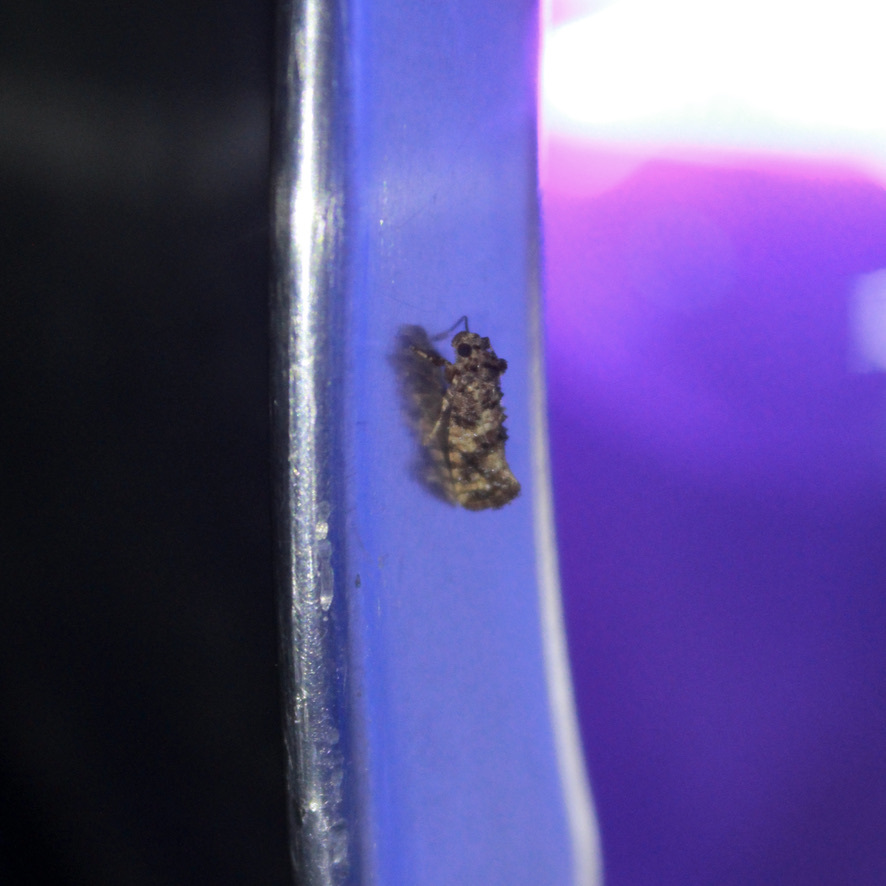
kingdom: Animalia
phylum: Arthropoda
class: Insecta
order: Lepidoptera
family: Tineidae
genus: Acrolophus
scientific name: Acrolophus cressoni
